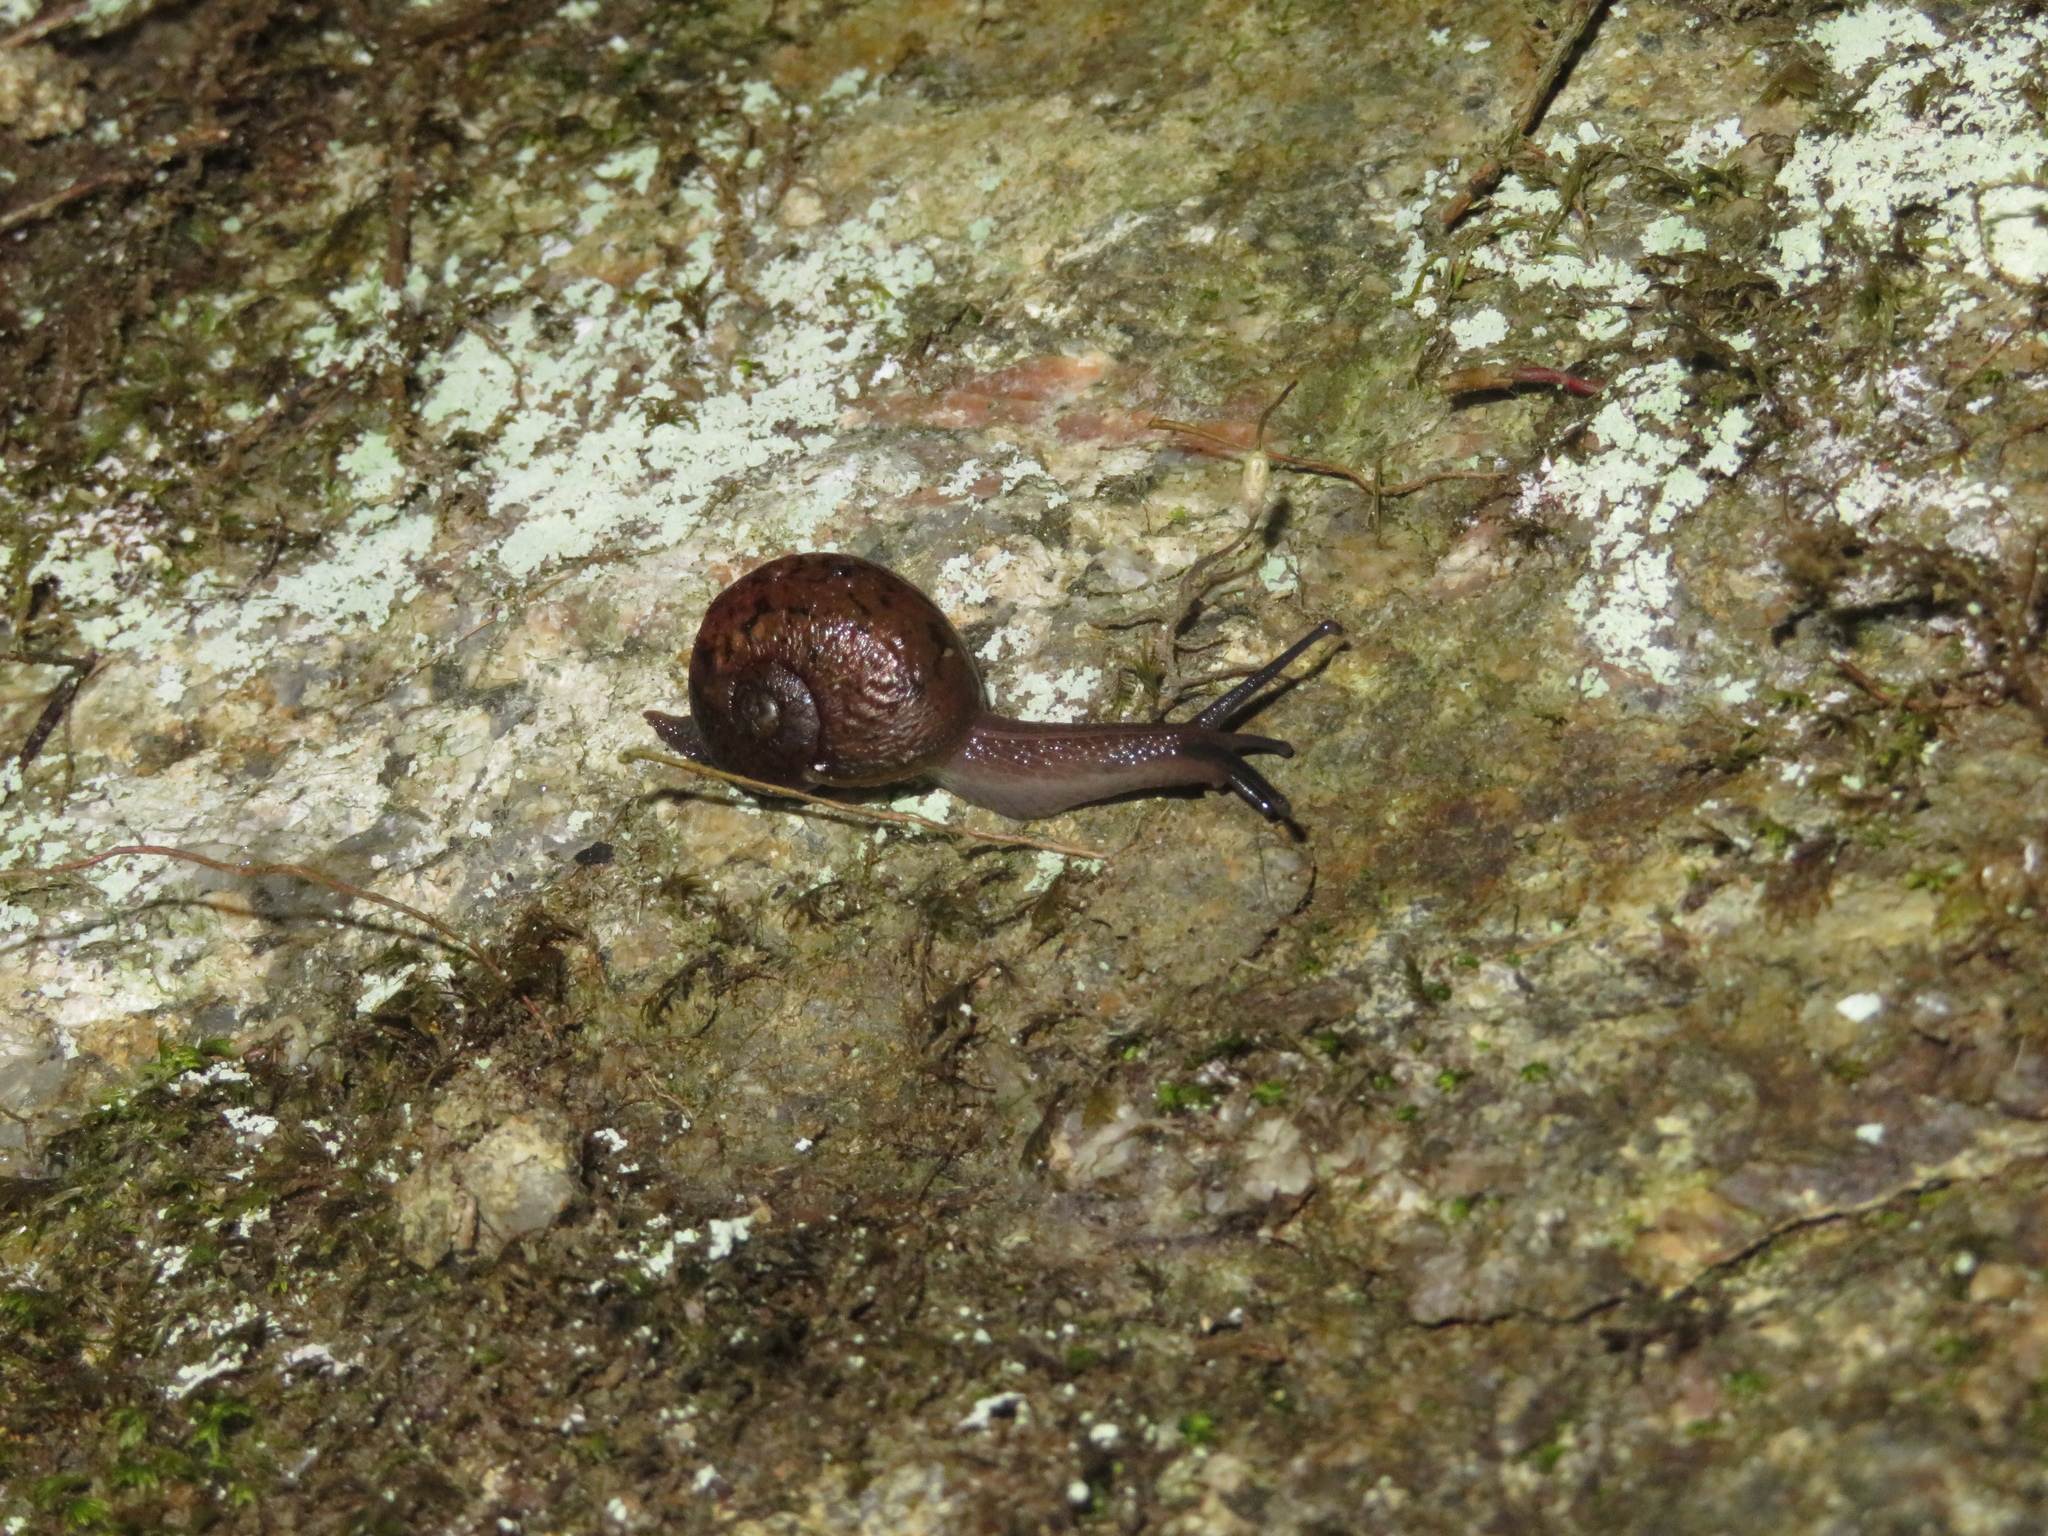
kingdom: Animalia
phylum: Mollusca
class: Gastropoda
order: Stylommatophora
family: Rhytididae
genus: Rhytida
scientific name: Rhytida meesoni
